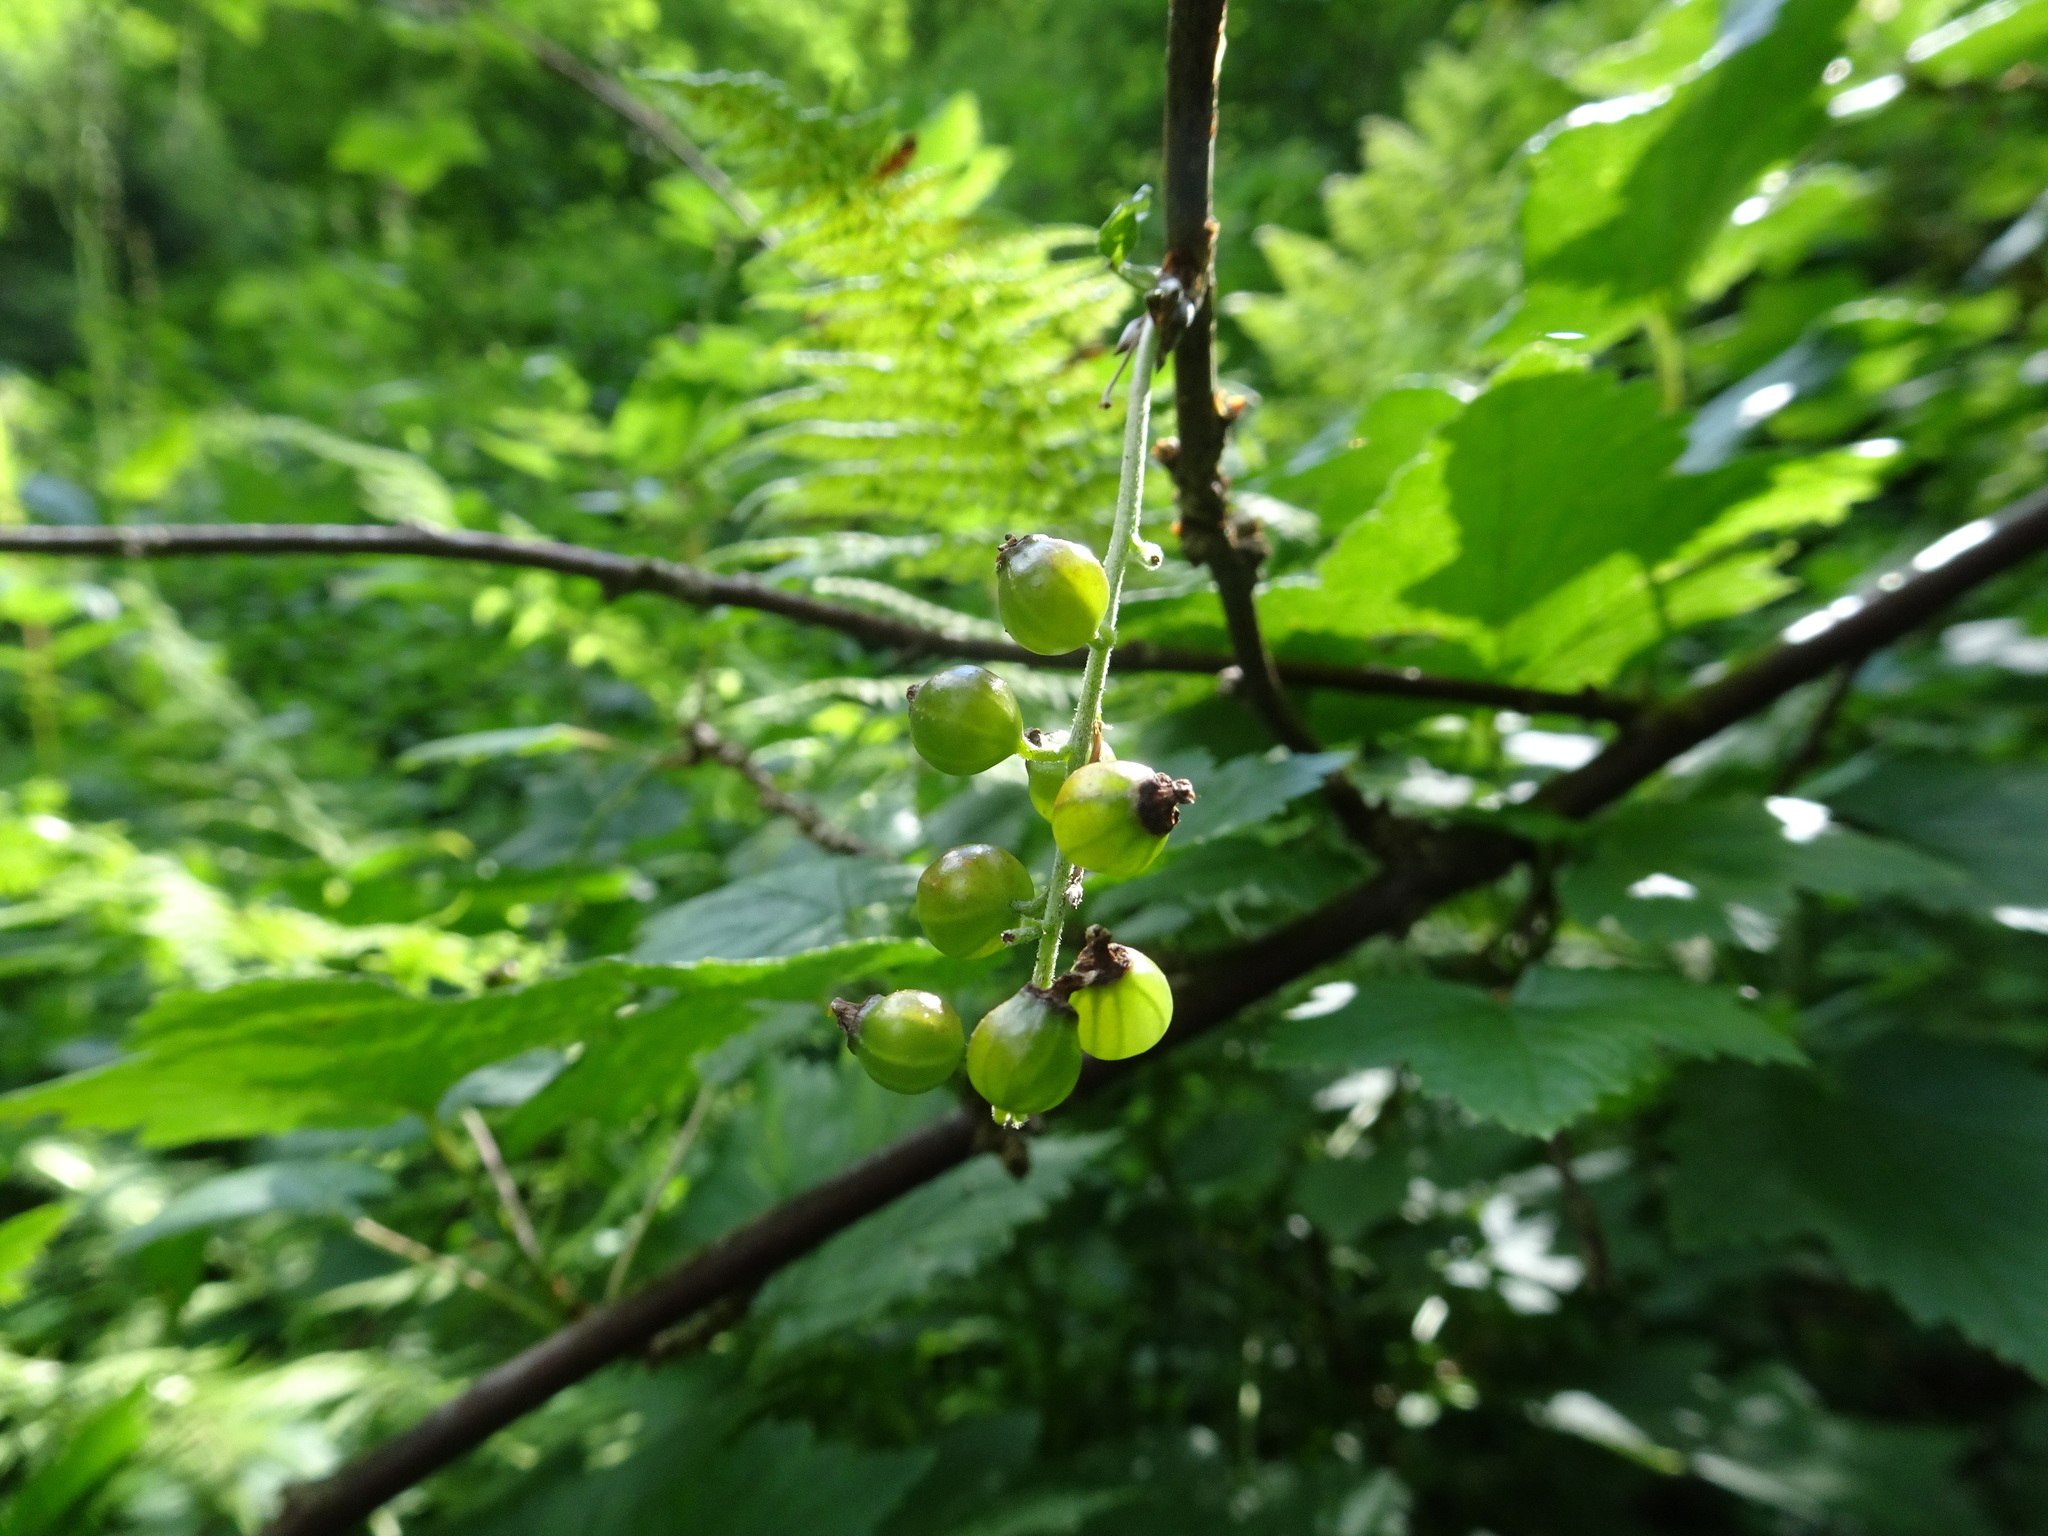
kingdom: Plantae
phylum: Tracheophyta
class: Magnoliopsida
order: Saxifragales
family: Grossulariaceae
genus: Ribes
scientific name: Ribes rubrum
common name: Red currant
